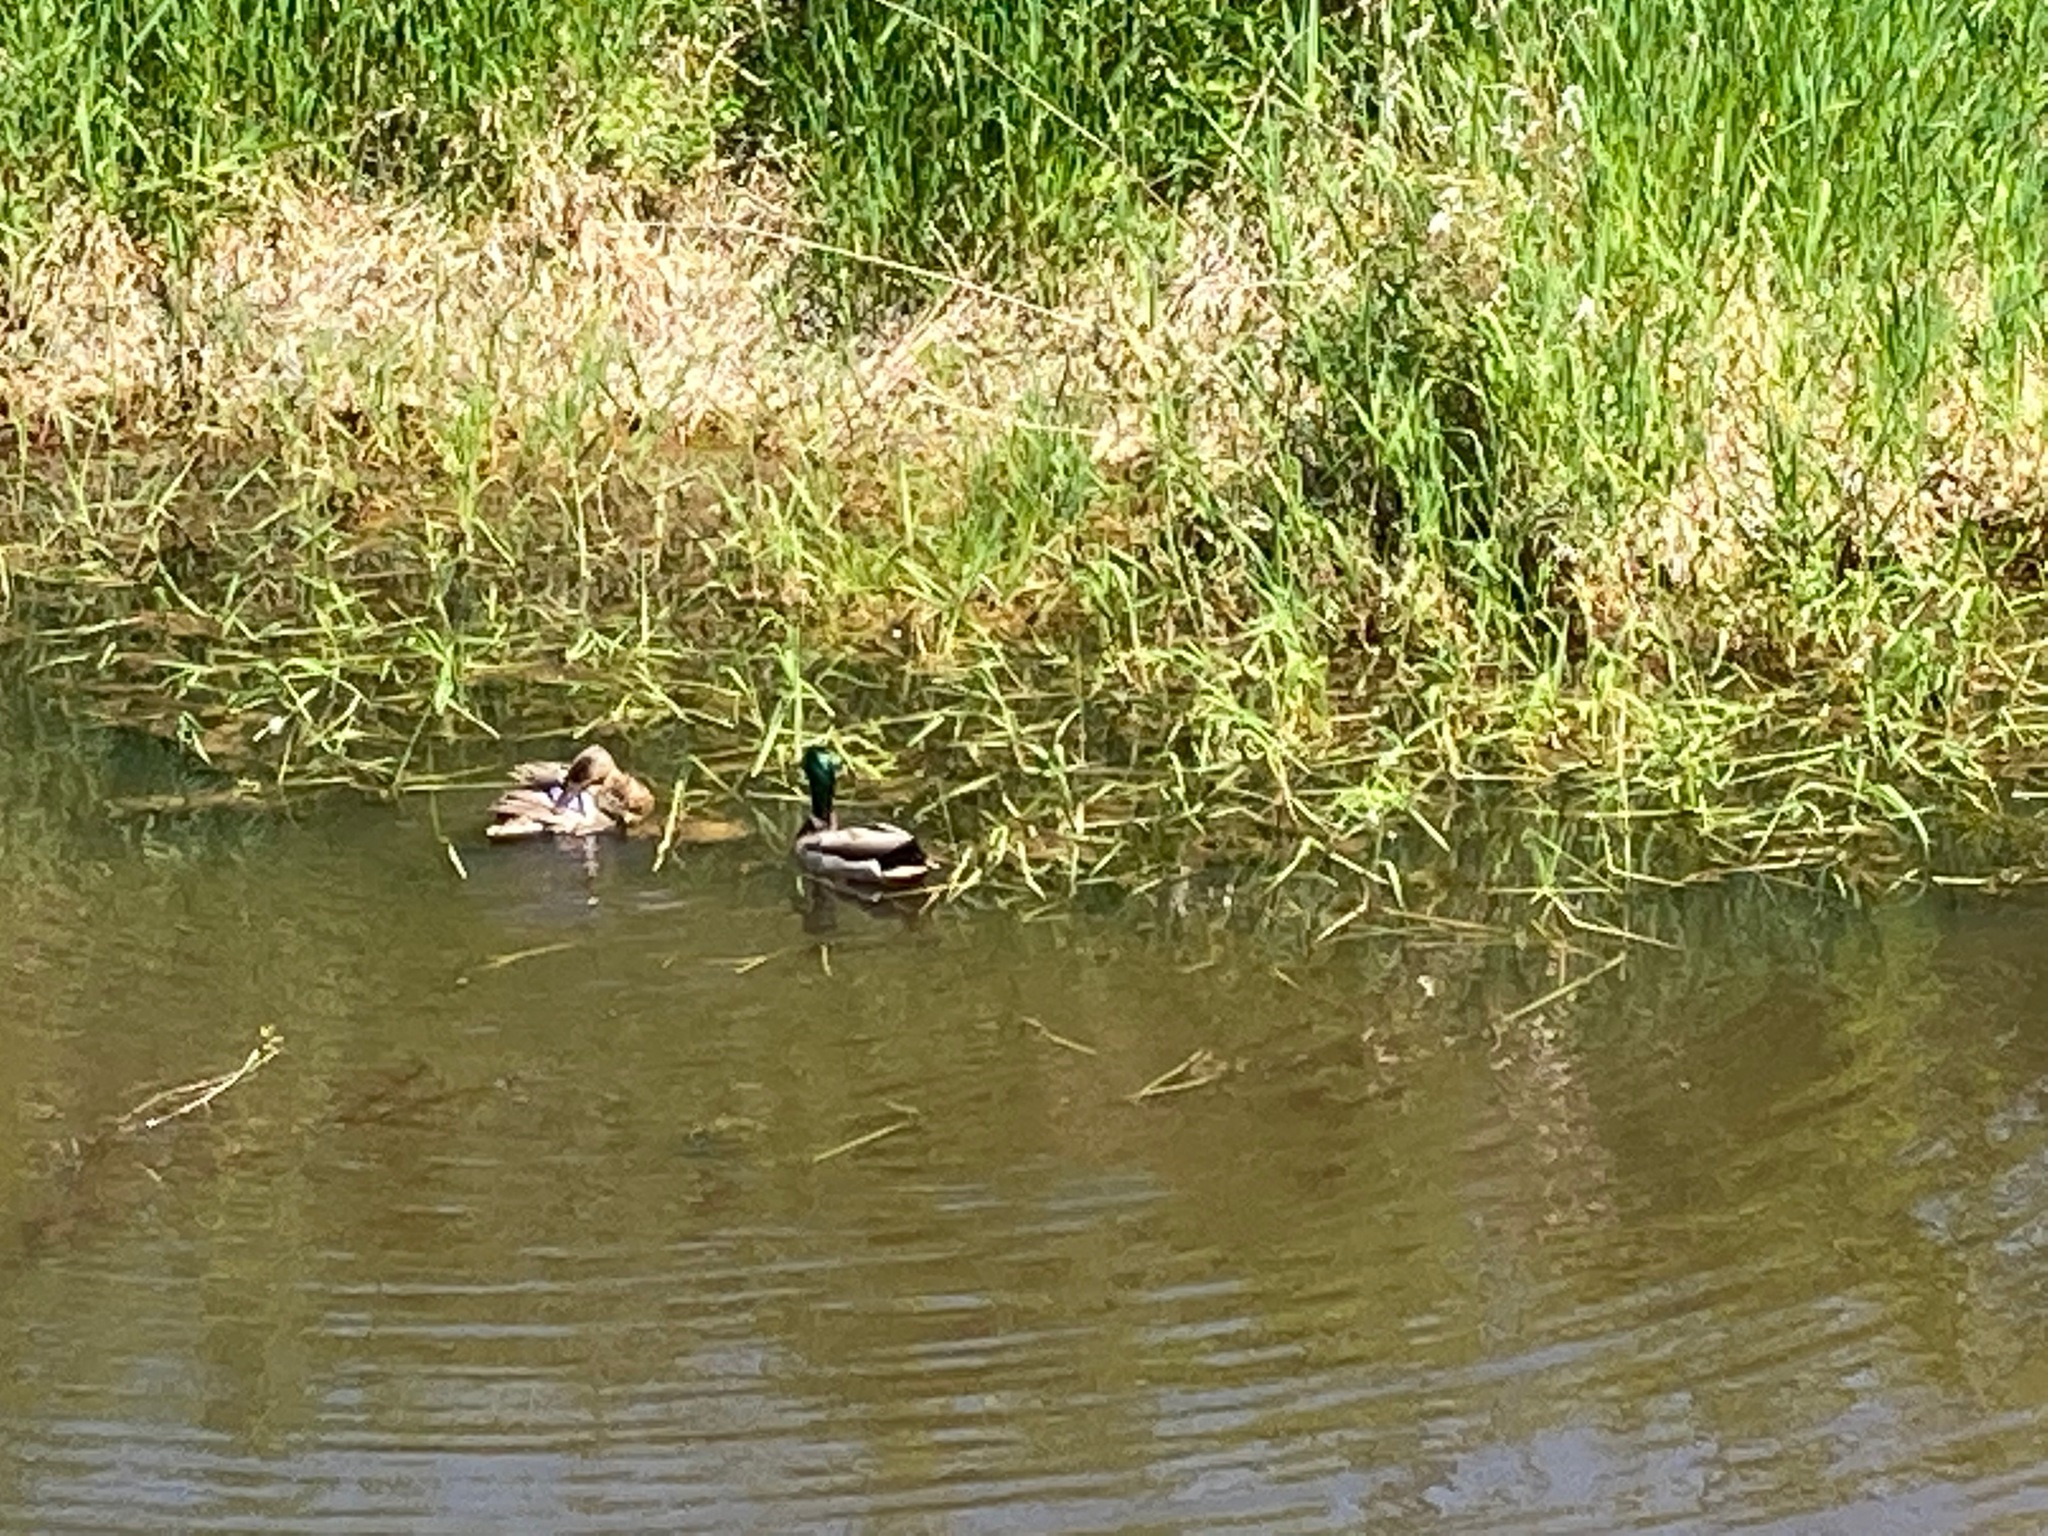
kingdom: Animalia
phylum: Chordata
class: Aves
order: Anseriformes
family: Anatidae
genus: Anas
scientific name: Anas platyrhynchos
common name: Mallard
